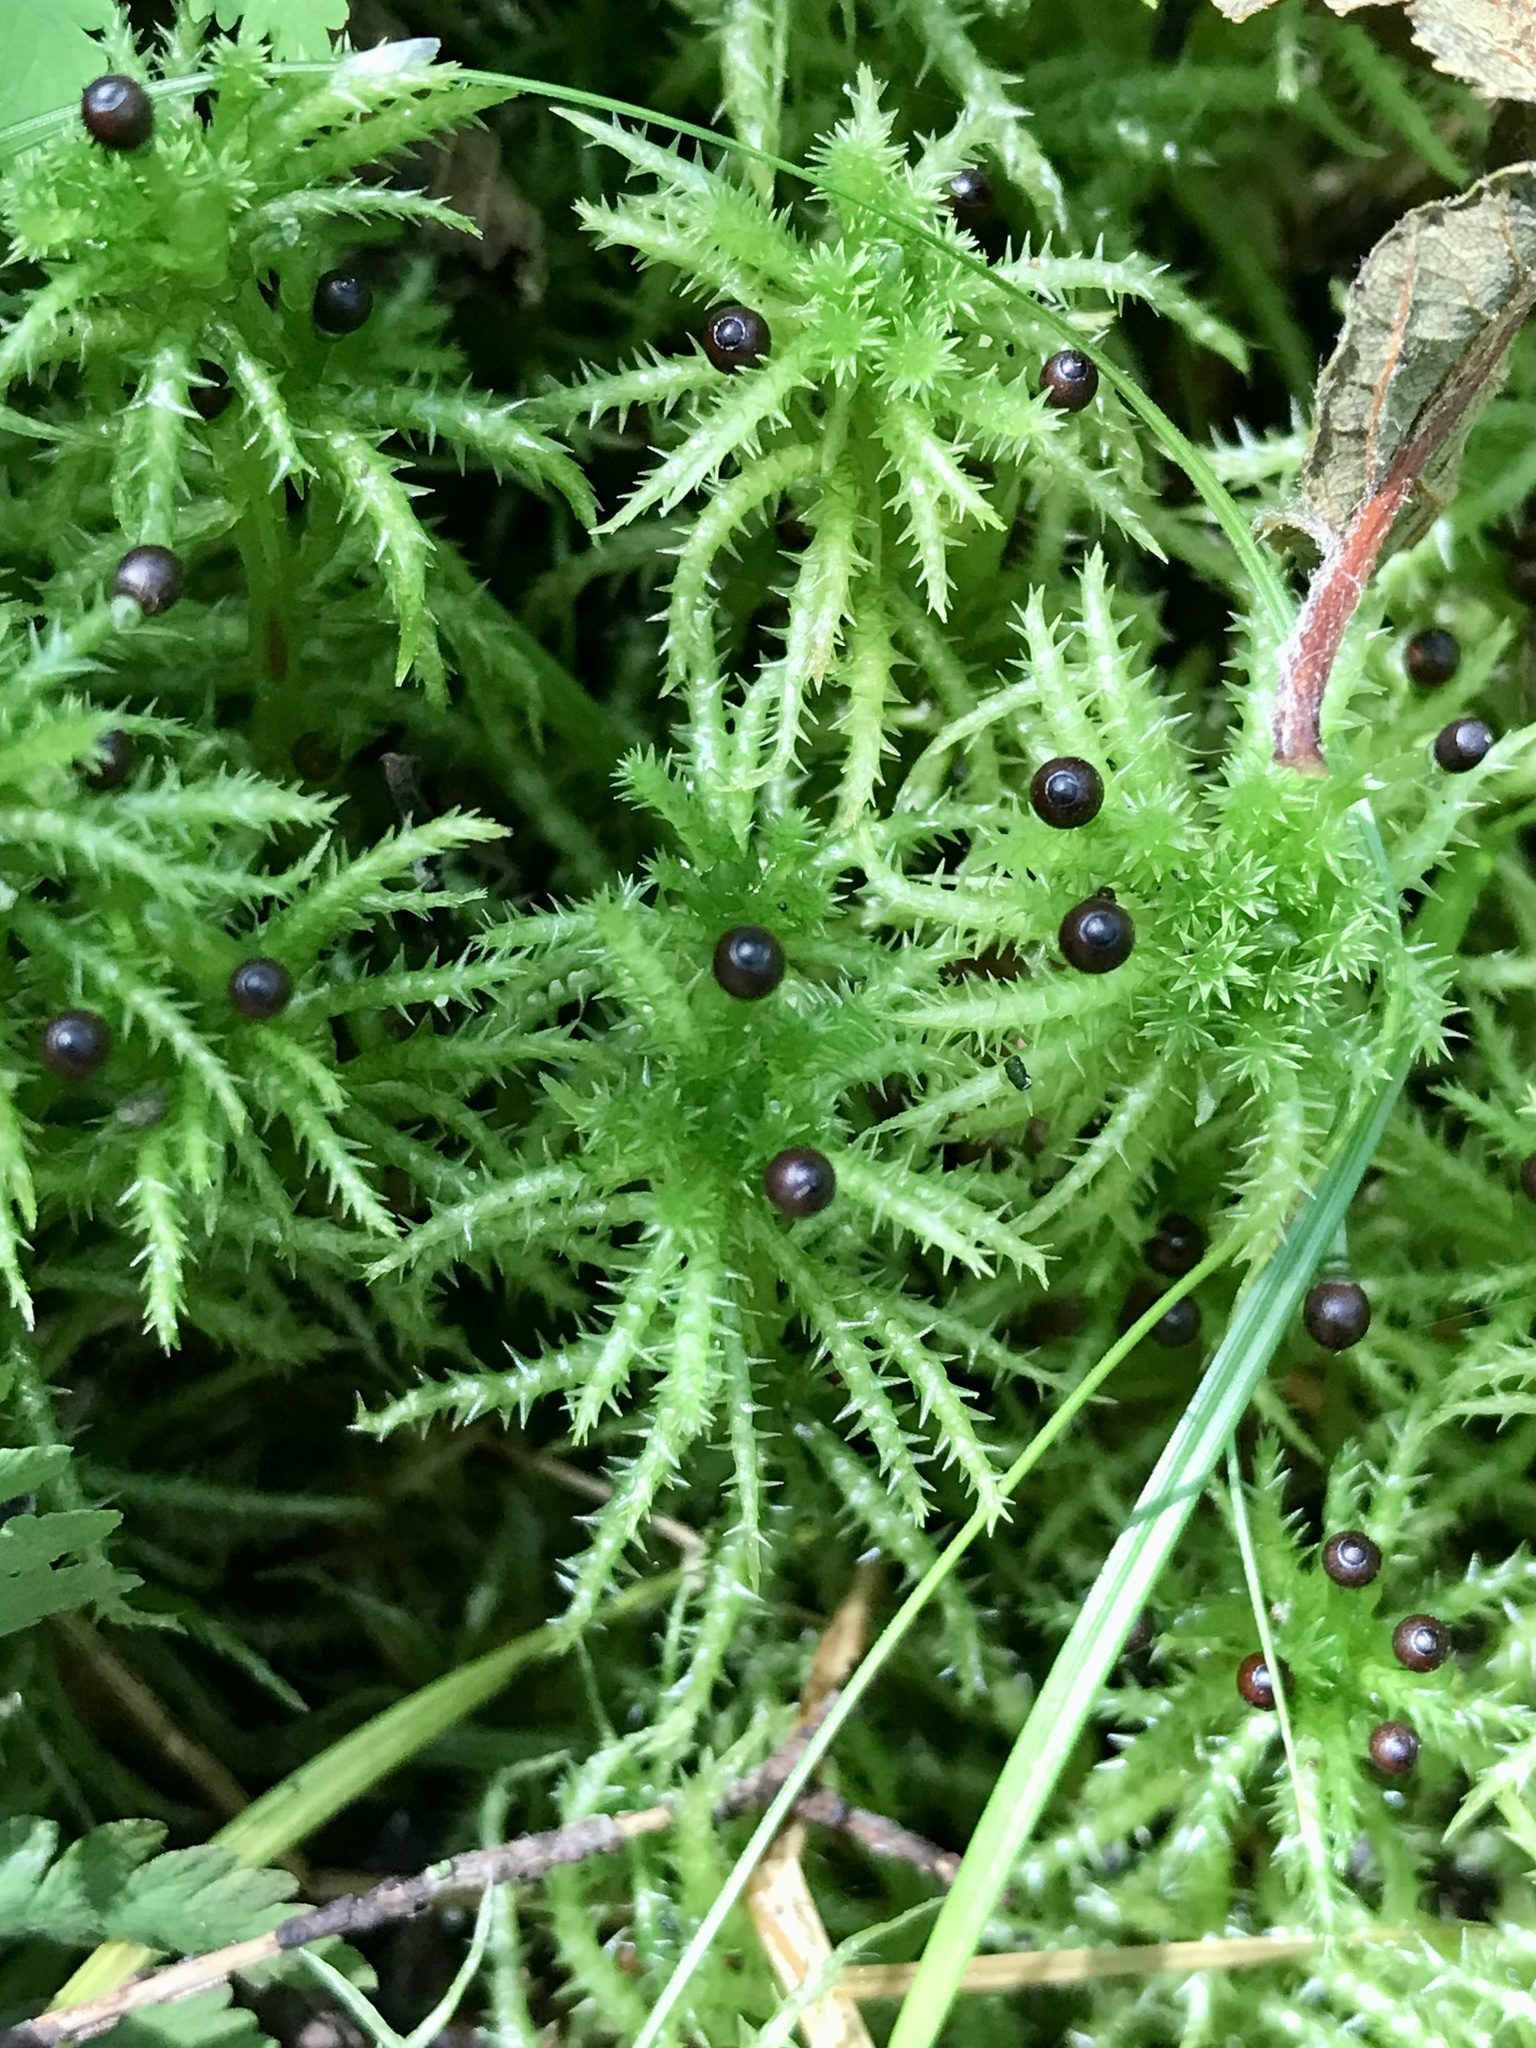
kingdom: Plantae
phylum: Bryophyta
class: Sphagnopsida
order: Sphagnales
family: Sphagnaceae
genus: Sphagnum
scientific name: Sphagnum squarrosum
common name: Shaggy peat moss
